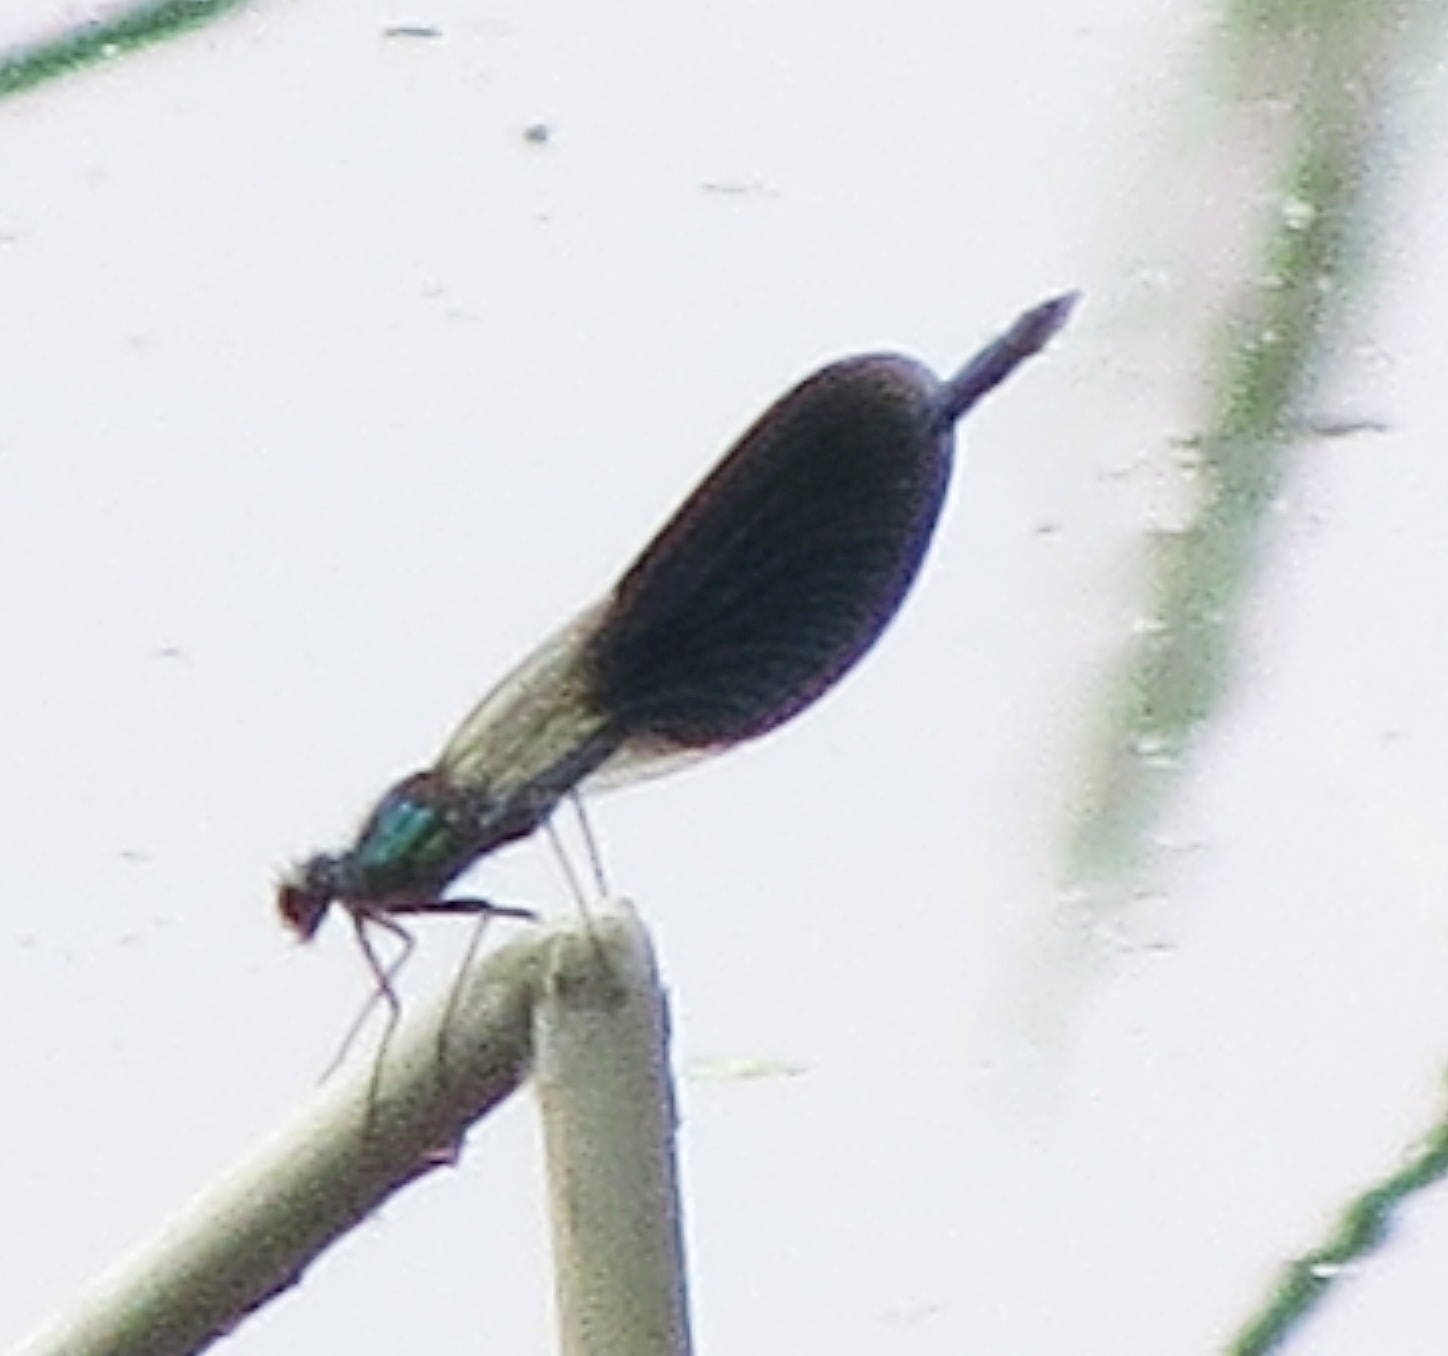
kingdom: Animalia
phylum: Arthropoda
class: Insecta
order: Odonata
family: Calopterygidae
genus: Calopteryx
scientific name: Calopteryx splendens
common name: Banded demoiselle
